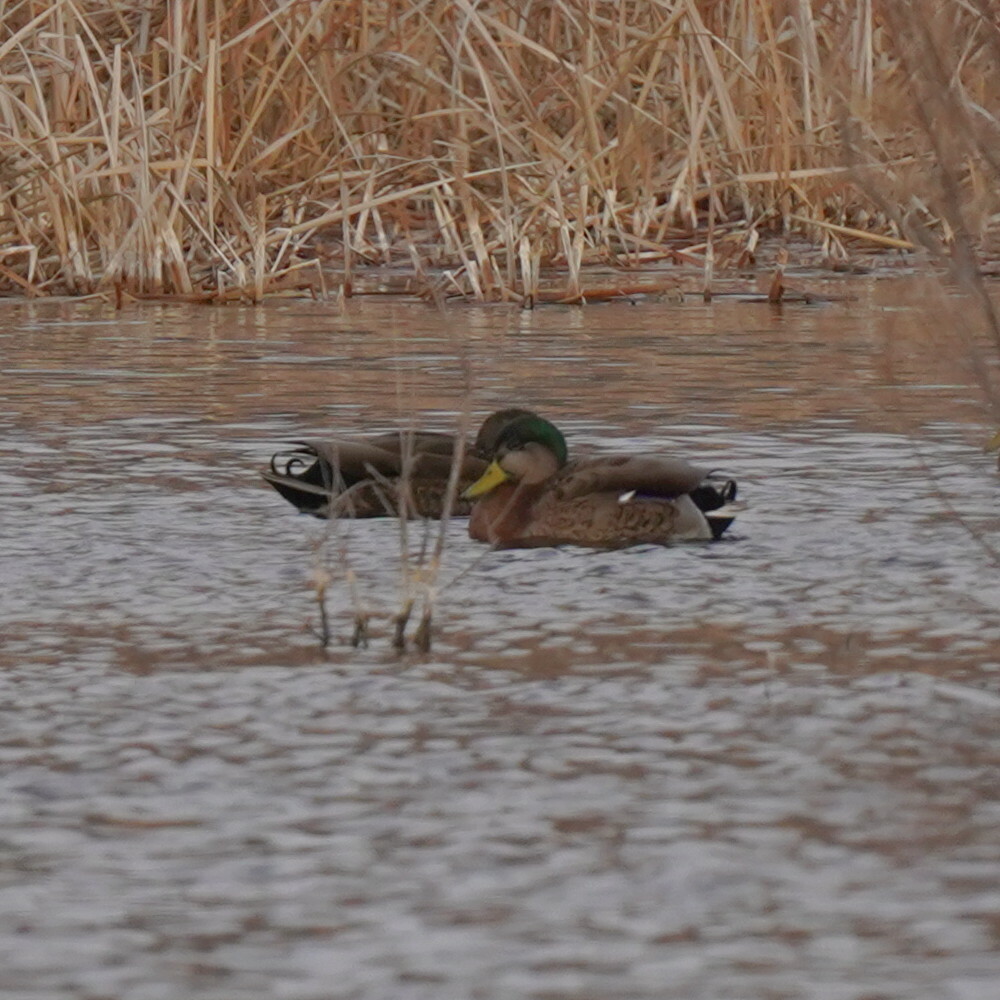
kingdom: Animalia
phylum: Chordata
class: Aves
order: Anseriformes
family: Anatidae
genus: Anas
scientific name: Anas
